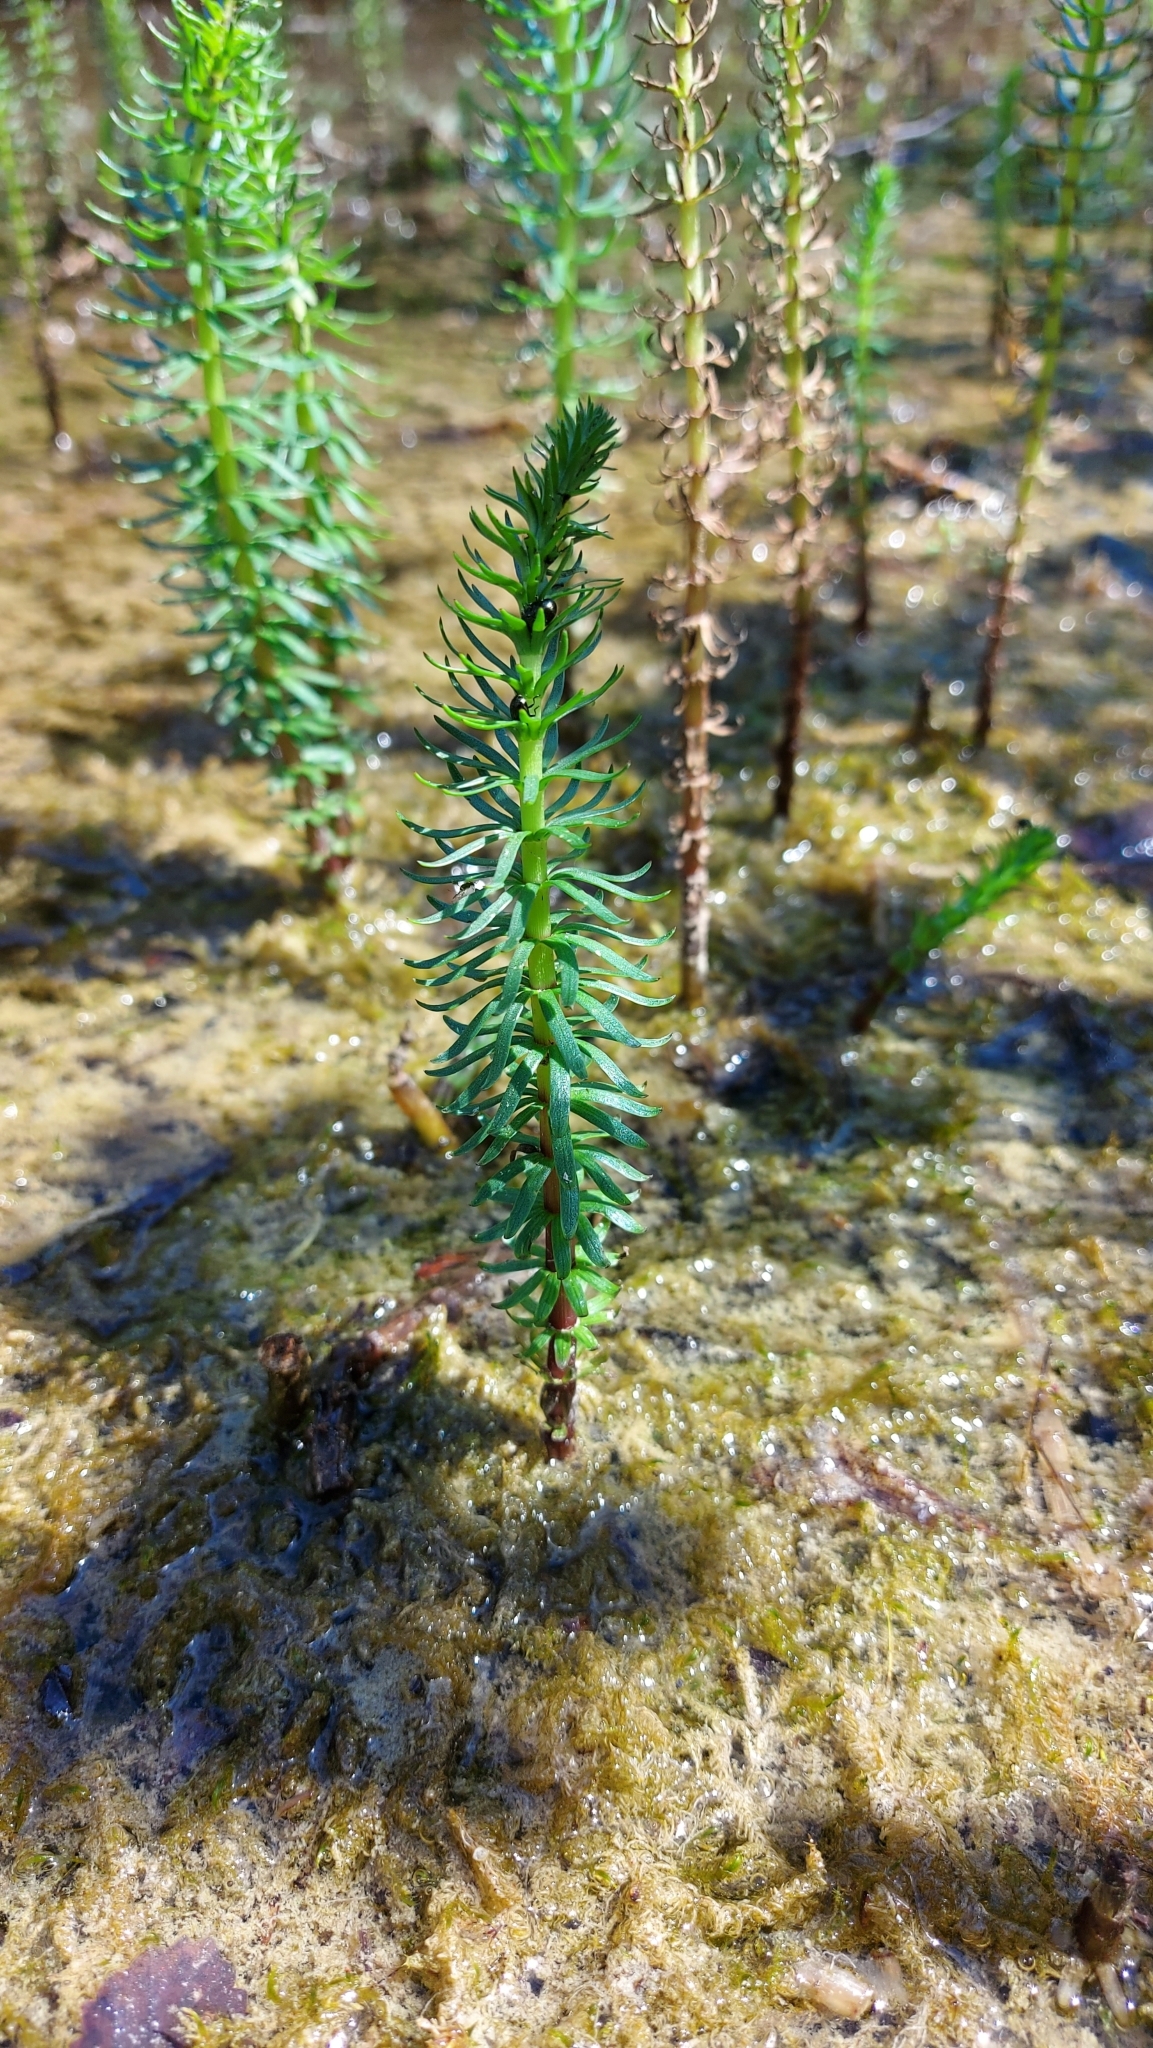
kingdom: Plantae
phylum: Tracheophyta
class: Magnoliopsida
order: Lamiales
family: Plantaginaceae
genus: Hippuris
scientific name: Hippuris vulgaris
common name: Mare's-tail
